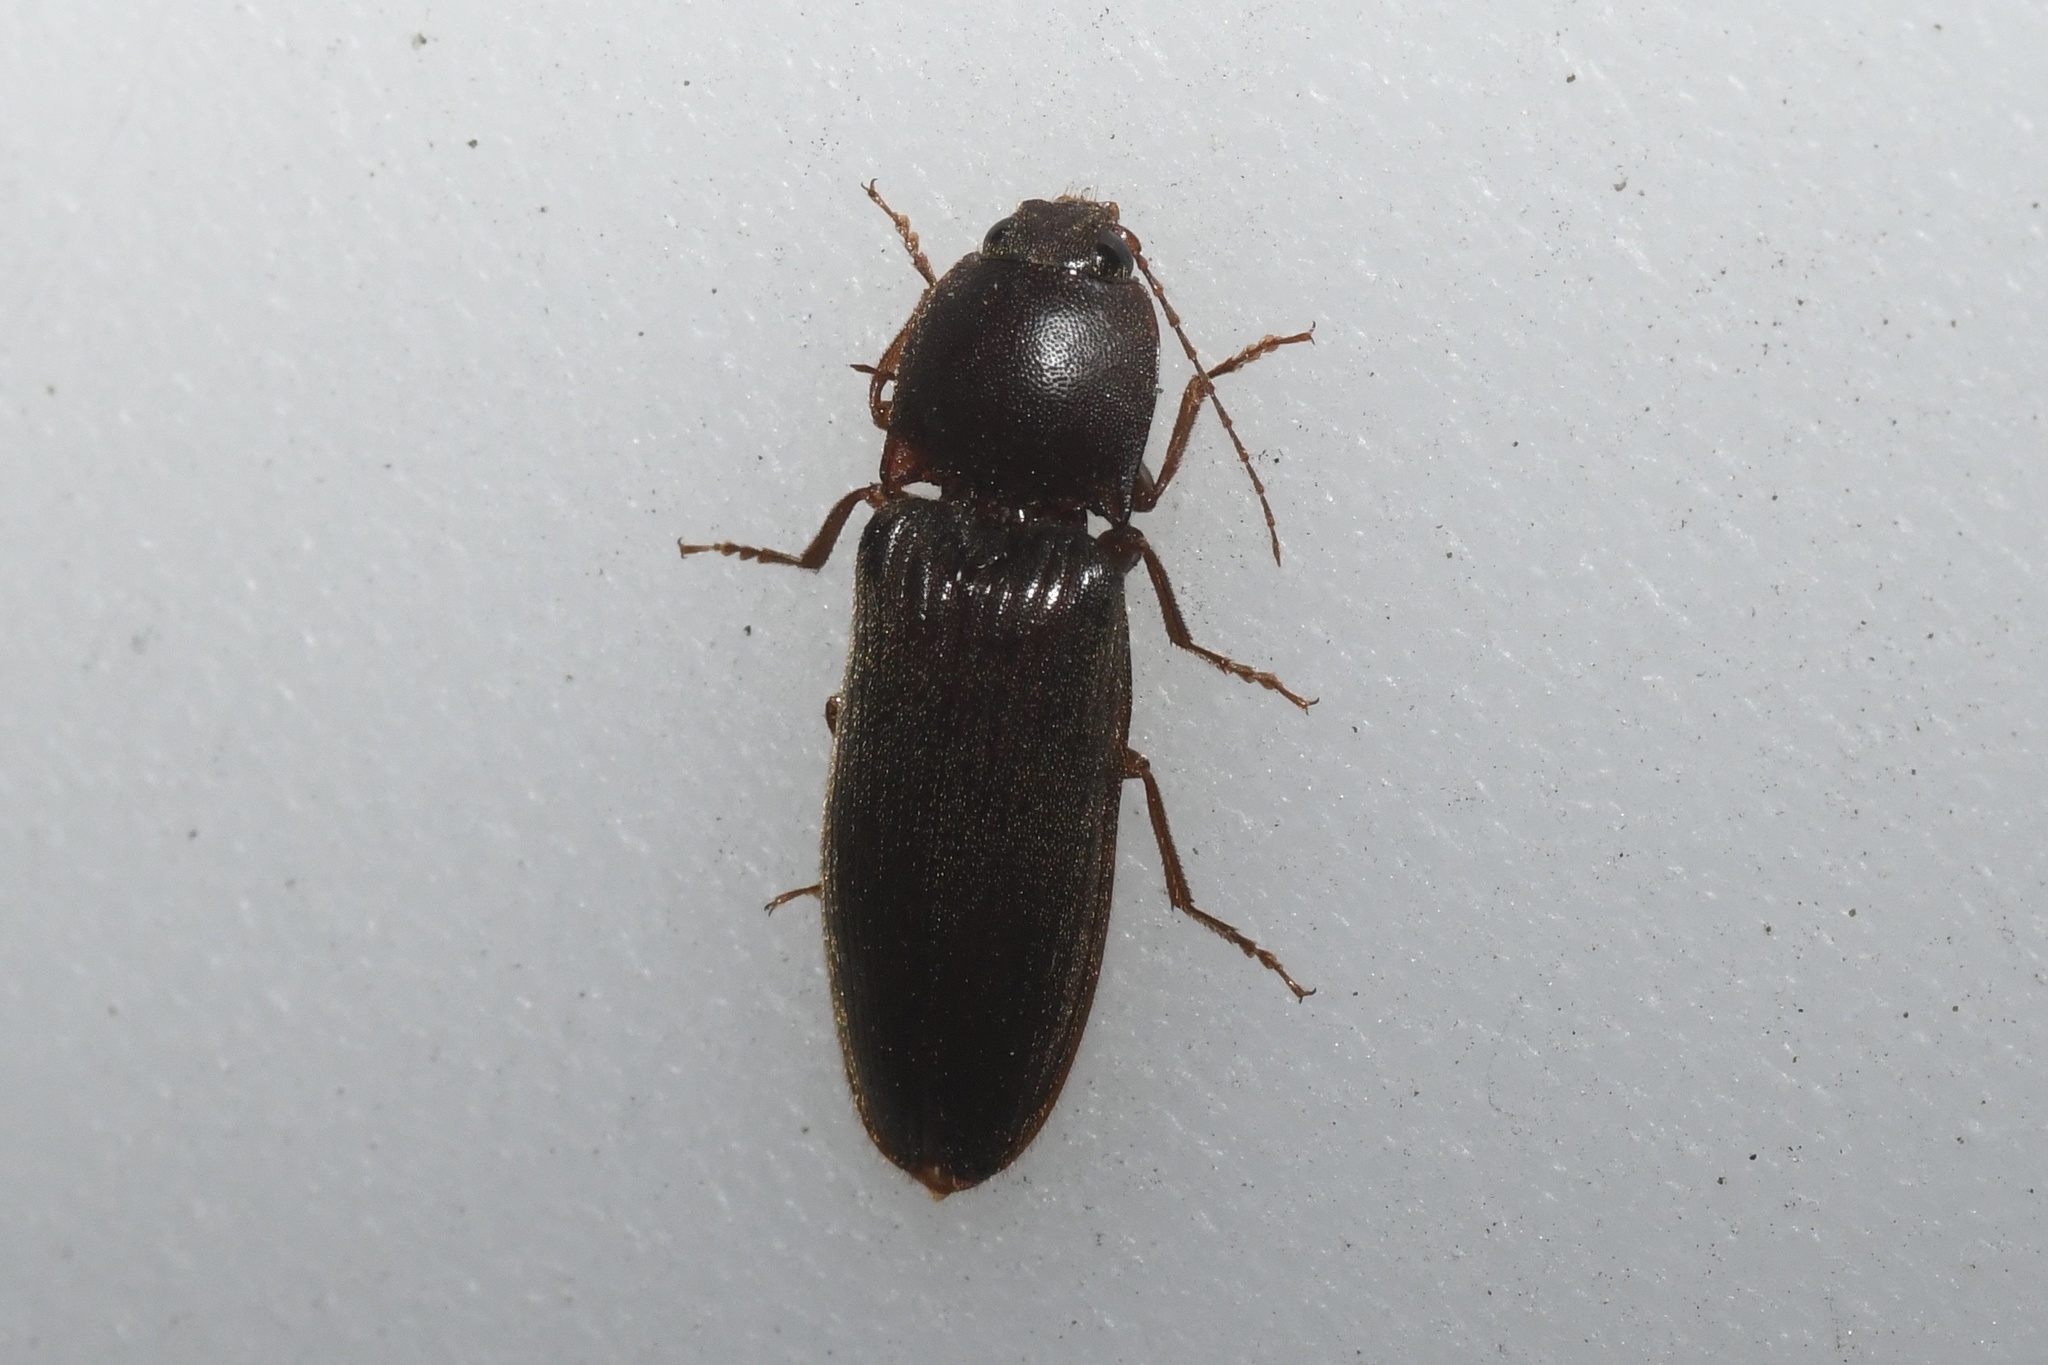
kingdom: Animalia
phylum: Arthropoda
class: Insecta
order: Coleoptera
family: Elateridae
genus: Hemicrepidius
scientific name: Hemicrepidius
